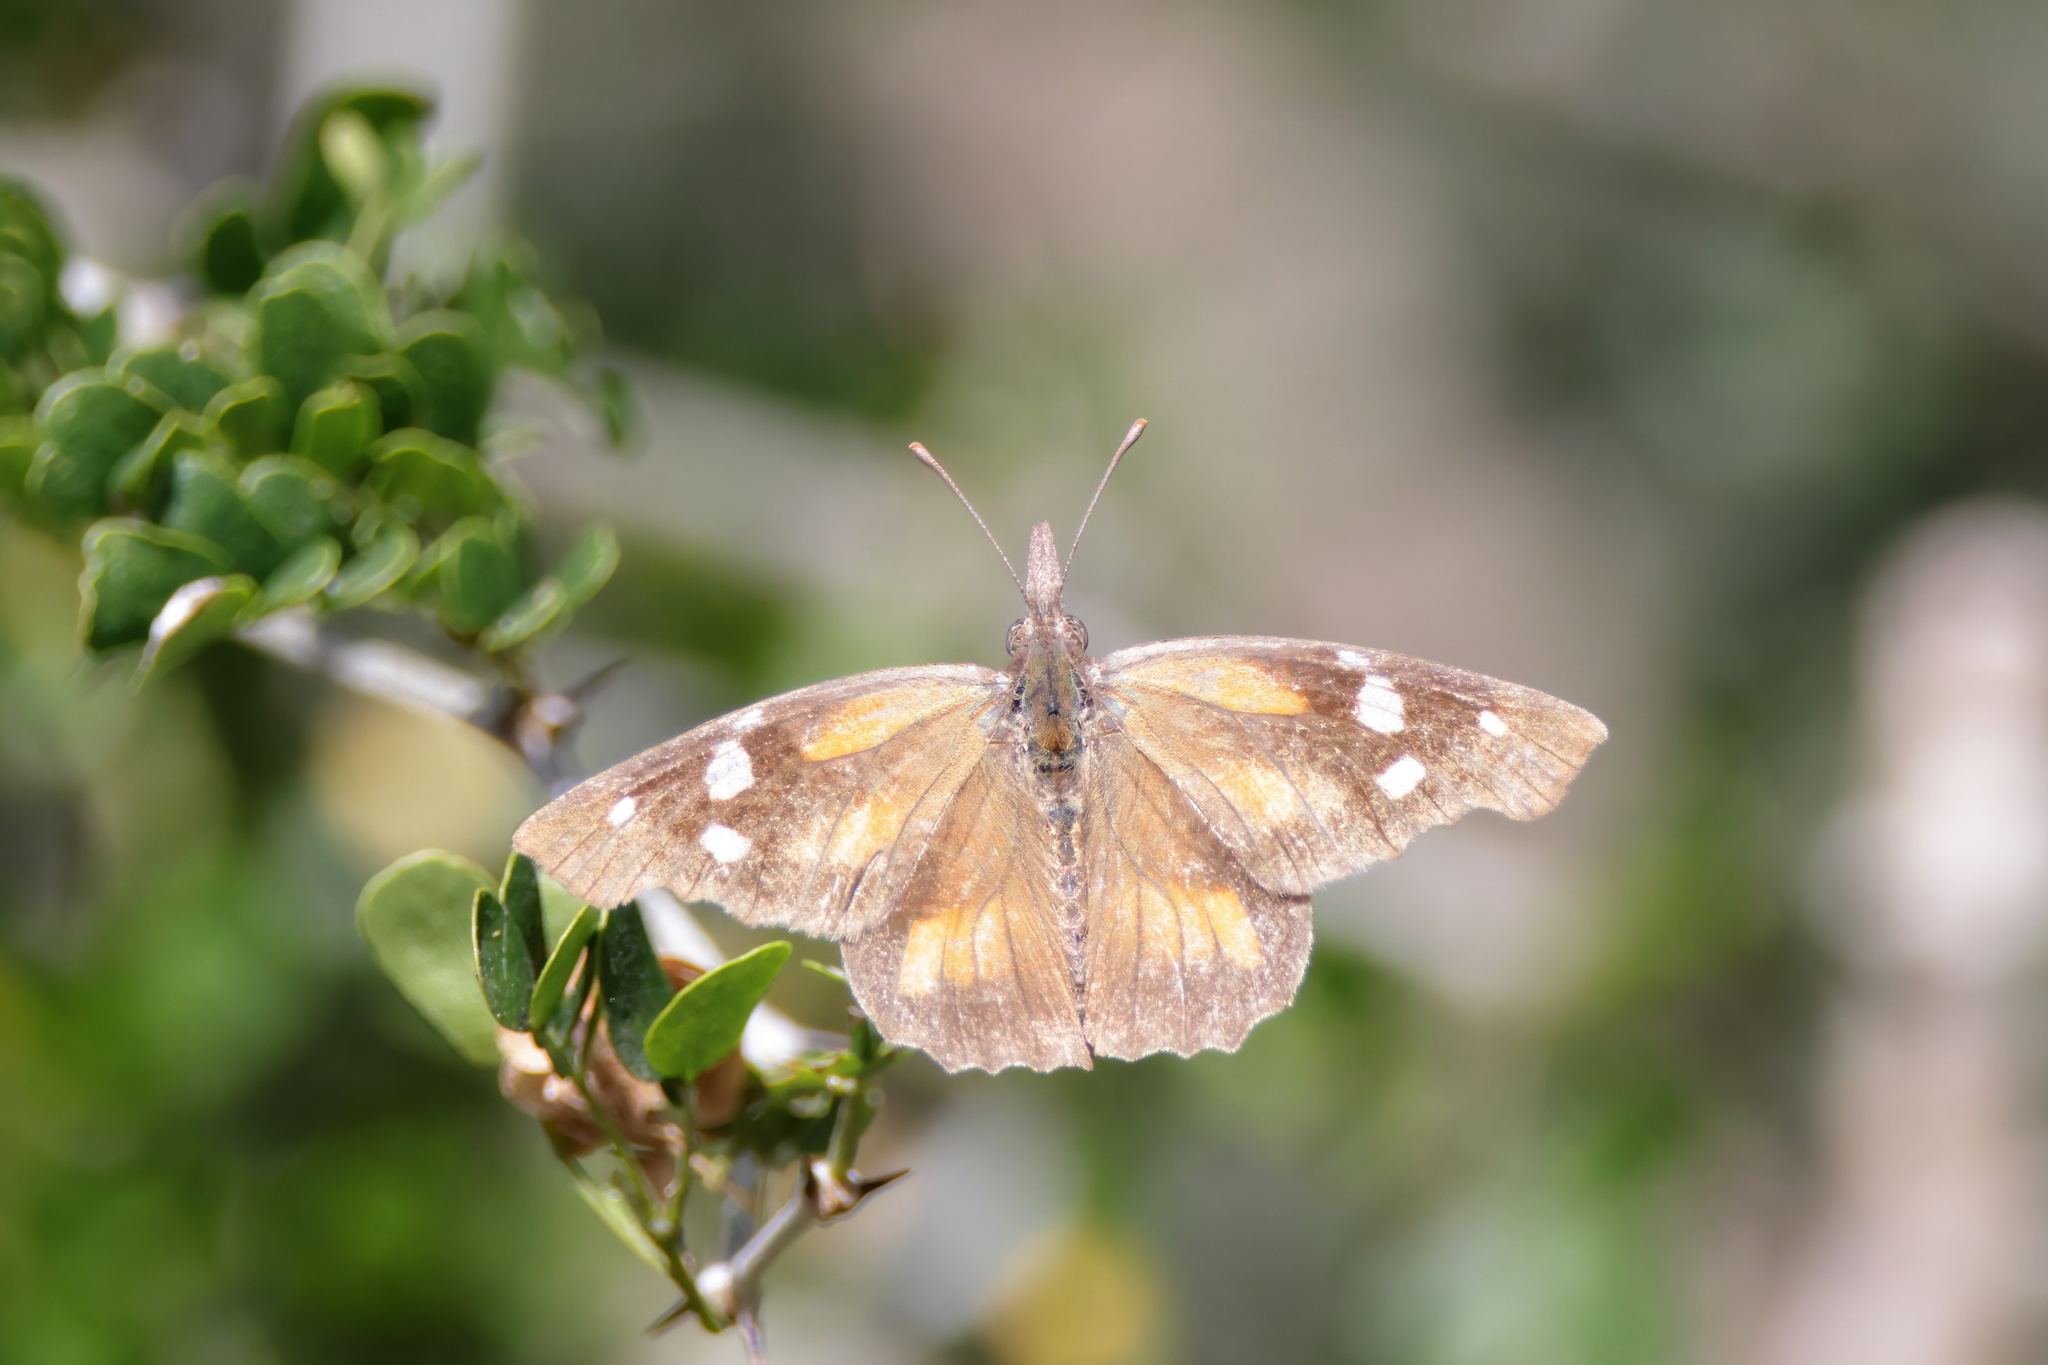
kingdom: Animalia
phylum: Arthropoda
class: Insecta
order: Lepidoptera
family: Nymphalidae
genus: Libytheana
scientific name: Libytheana carinenta
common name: American snout
